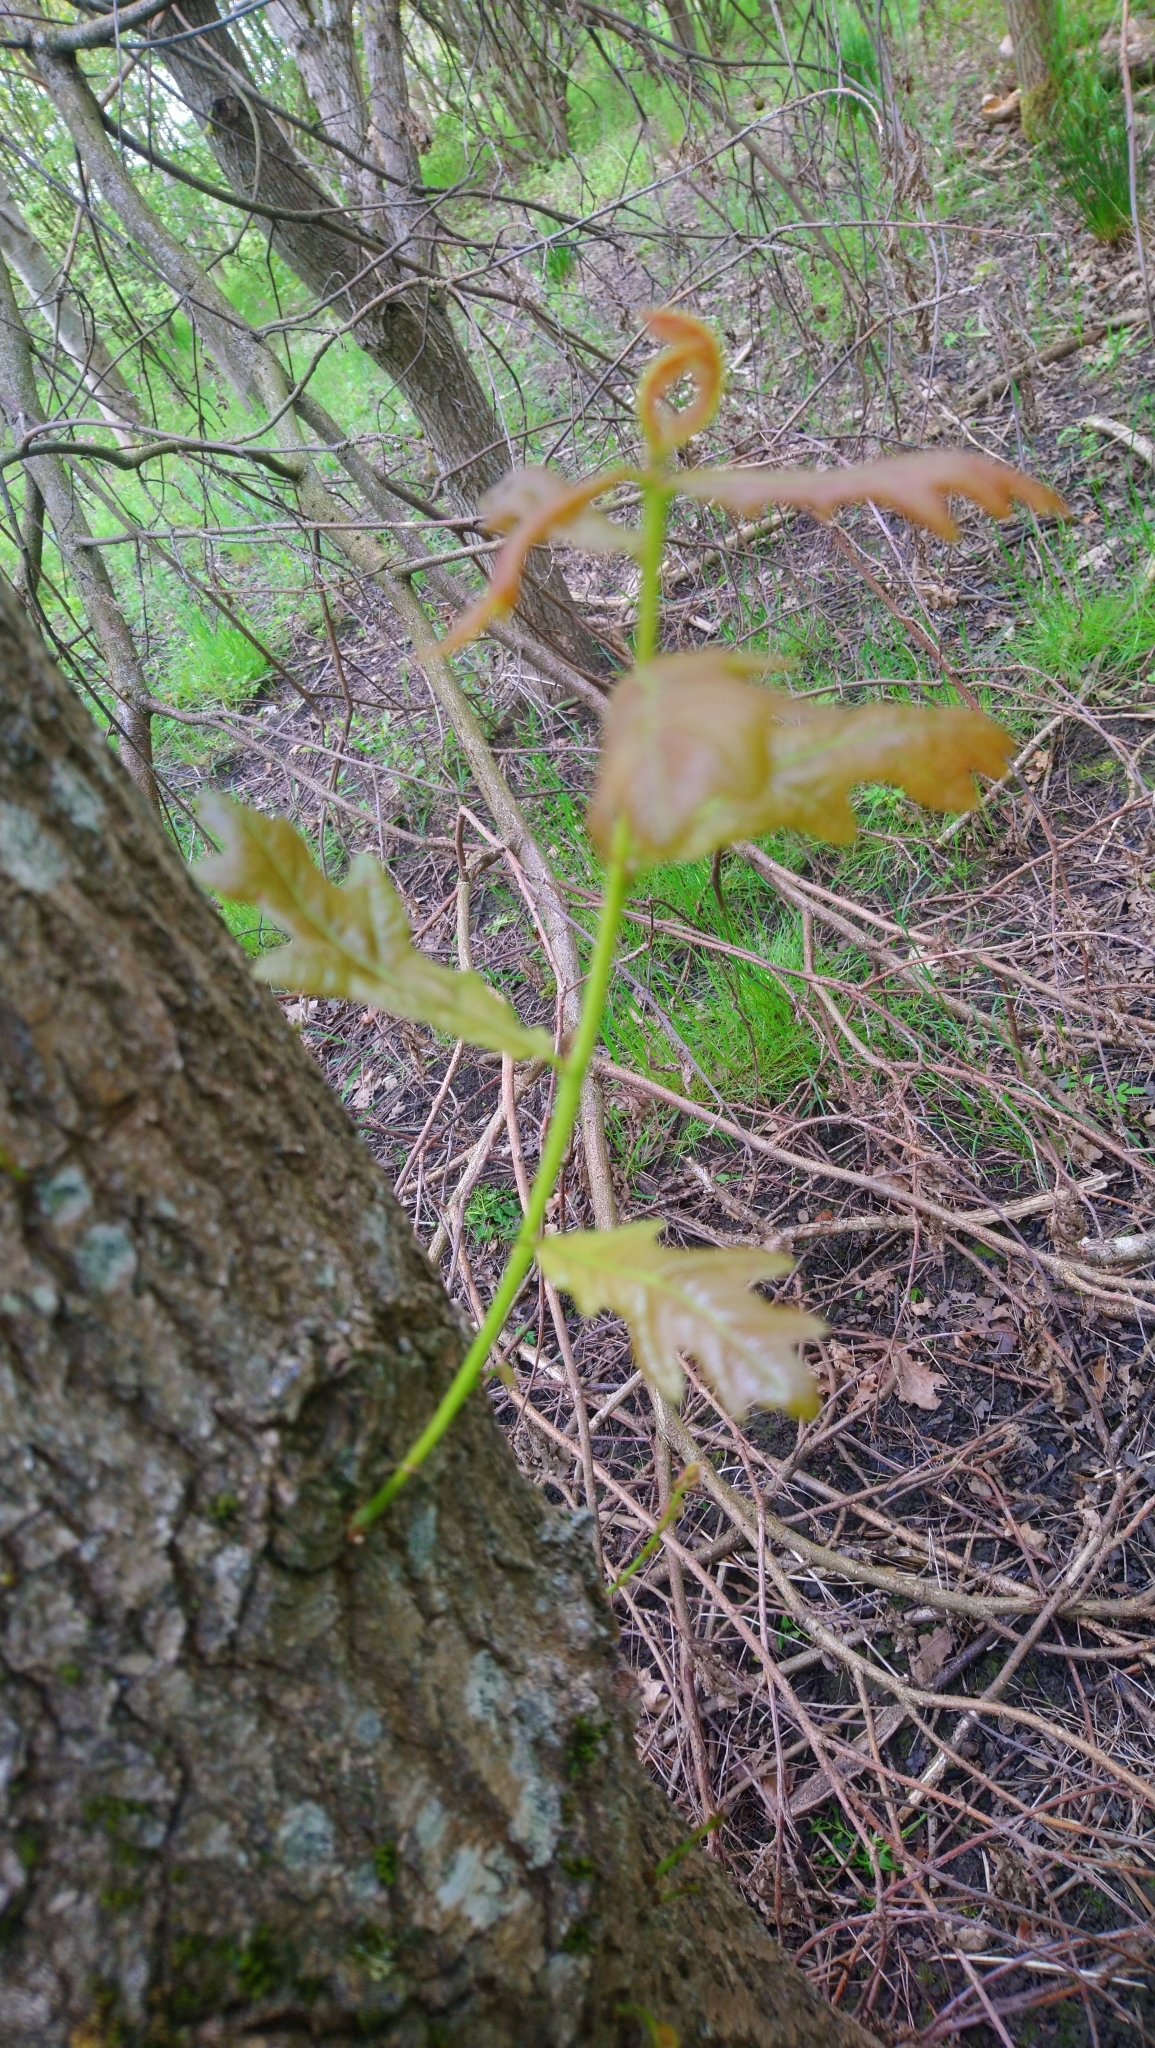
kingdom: Plantae
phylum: Tracheophyta
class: Magnoliopsida
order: Fagales
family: Fagaceae
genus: Quercus
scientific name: Quercus robur
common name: Pedunculate oak
